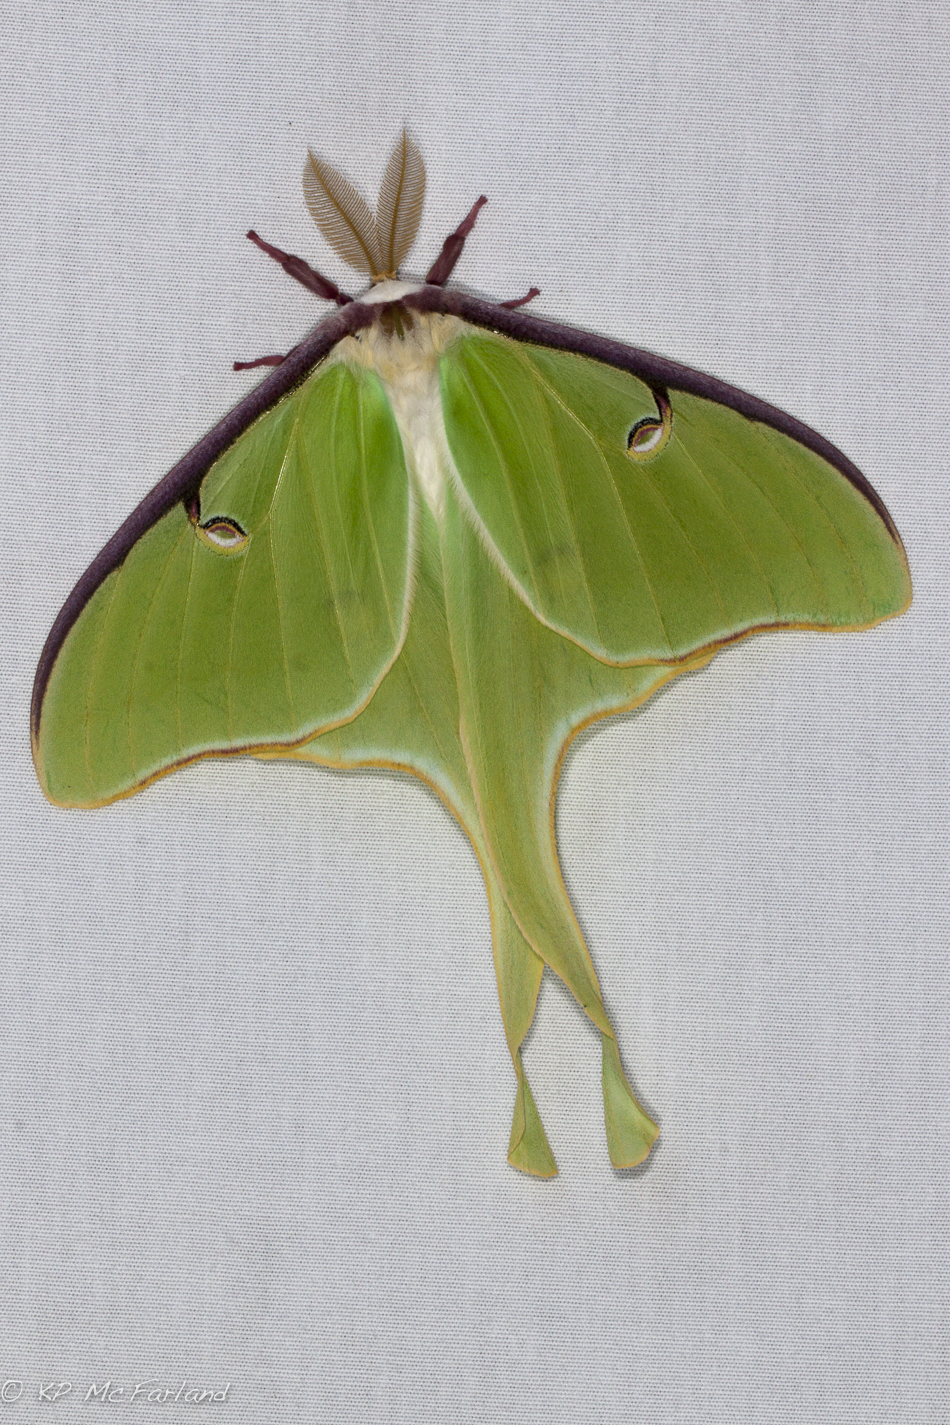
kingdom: Animalia
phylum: Arthropoda
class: Insecta
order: Lepidoptera
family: Saturniidae
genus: Actias
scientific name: Actias luna
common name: Luna moth
